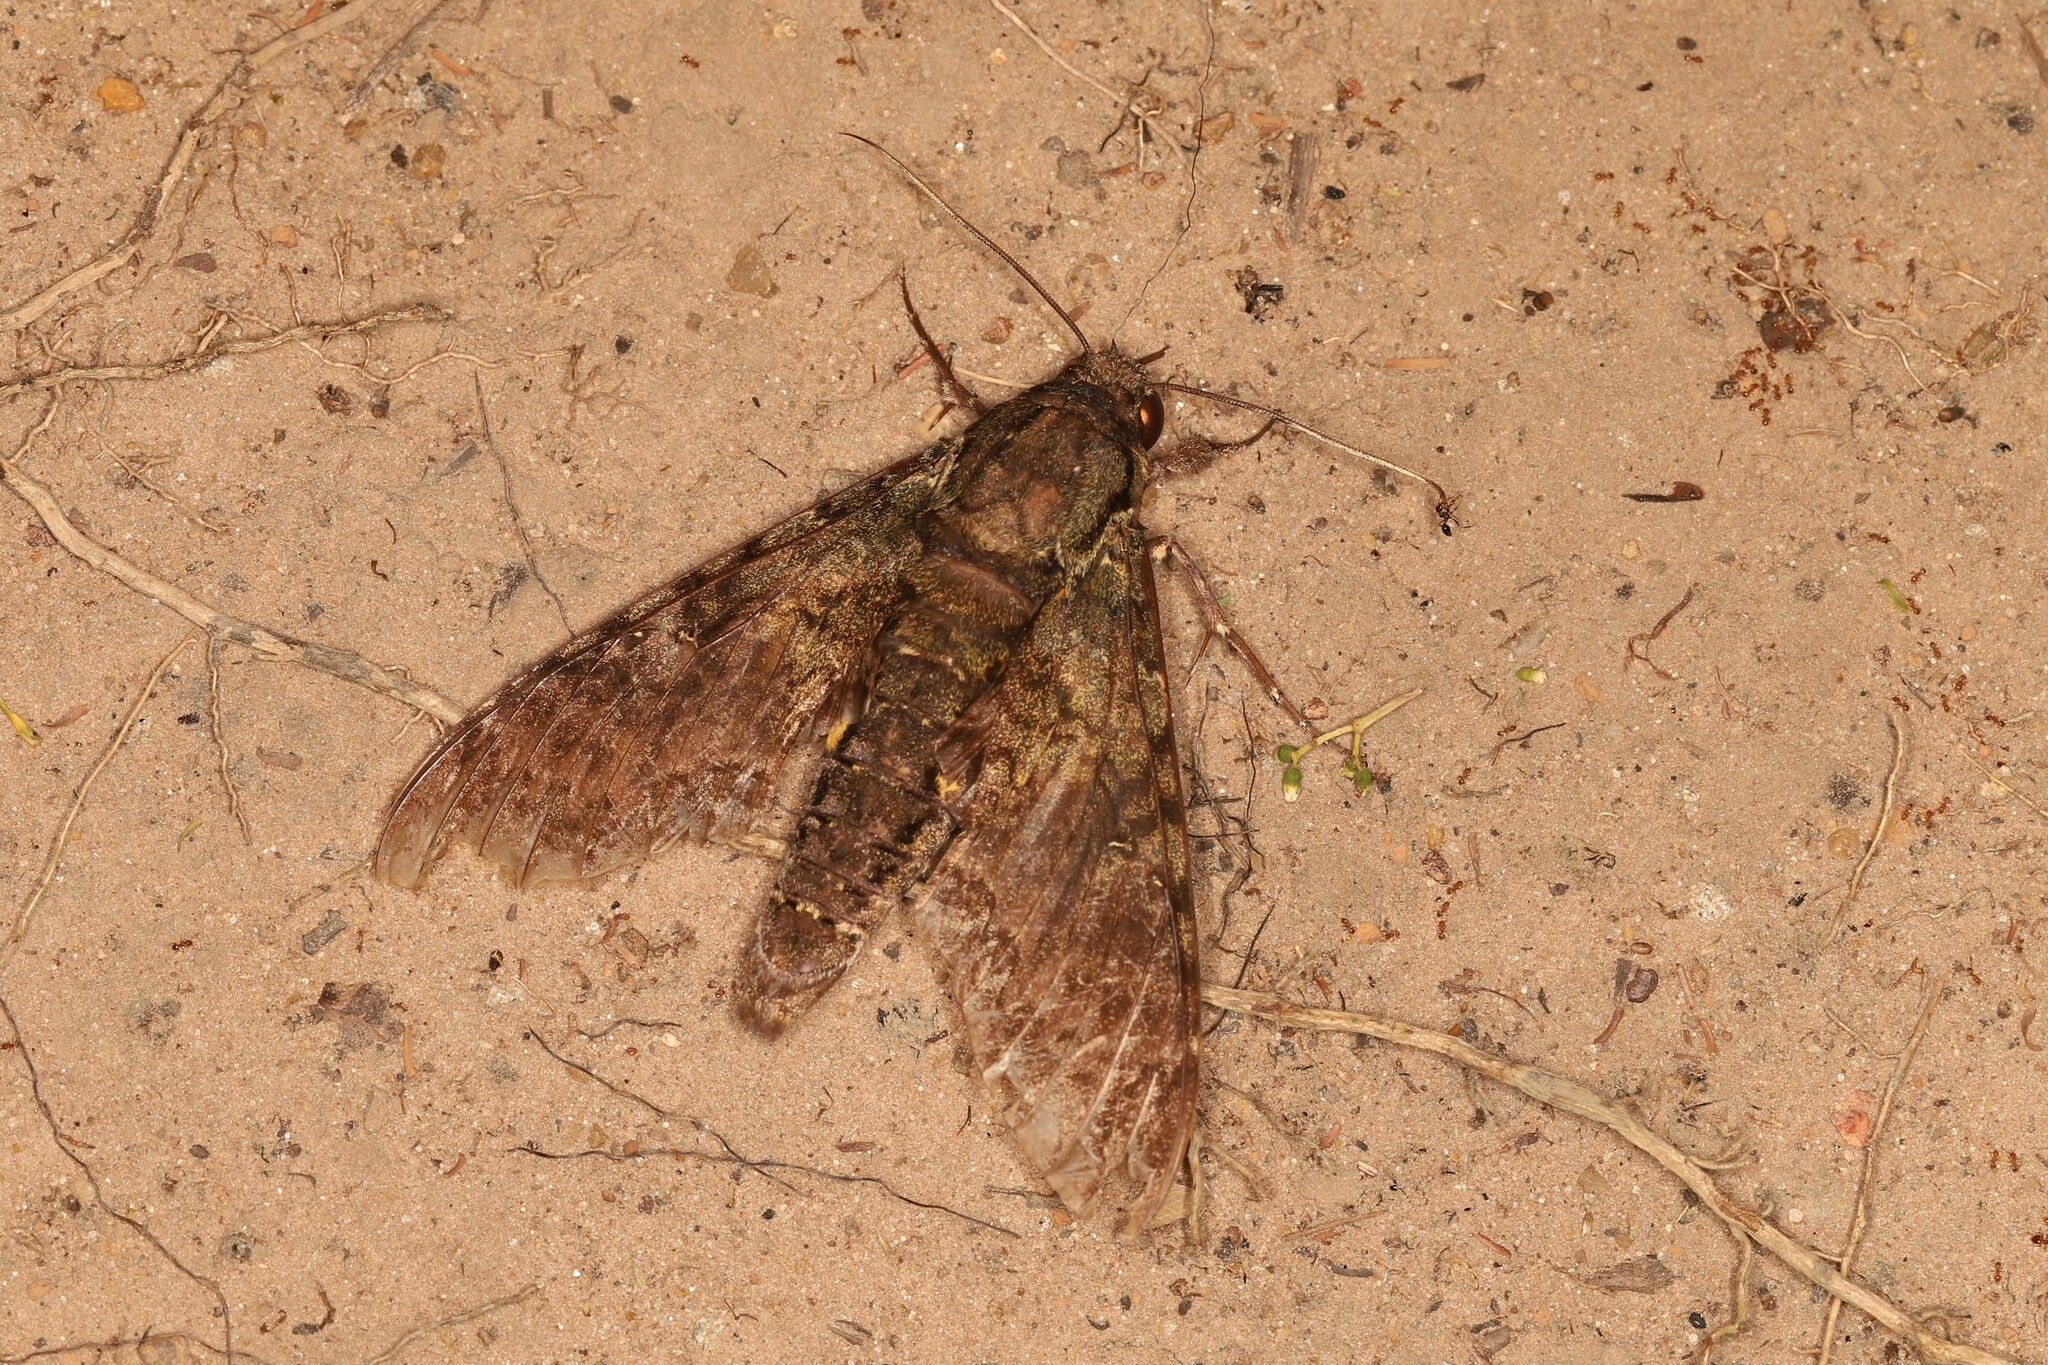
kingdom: Animalia
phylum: Arthropoda
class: Insecta
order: Lepidoptera
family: Sphingidae
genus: Cocytius
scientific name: Cocytius antaeus
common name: Giant sphinx
